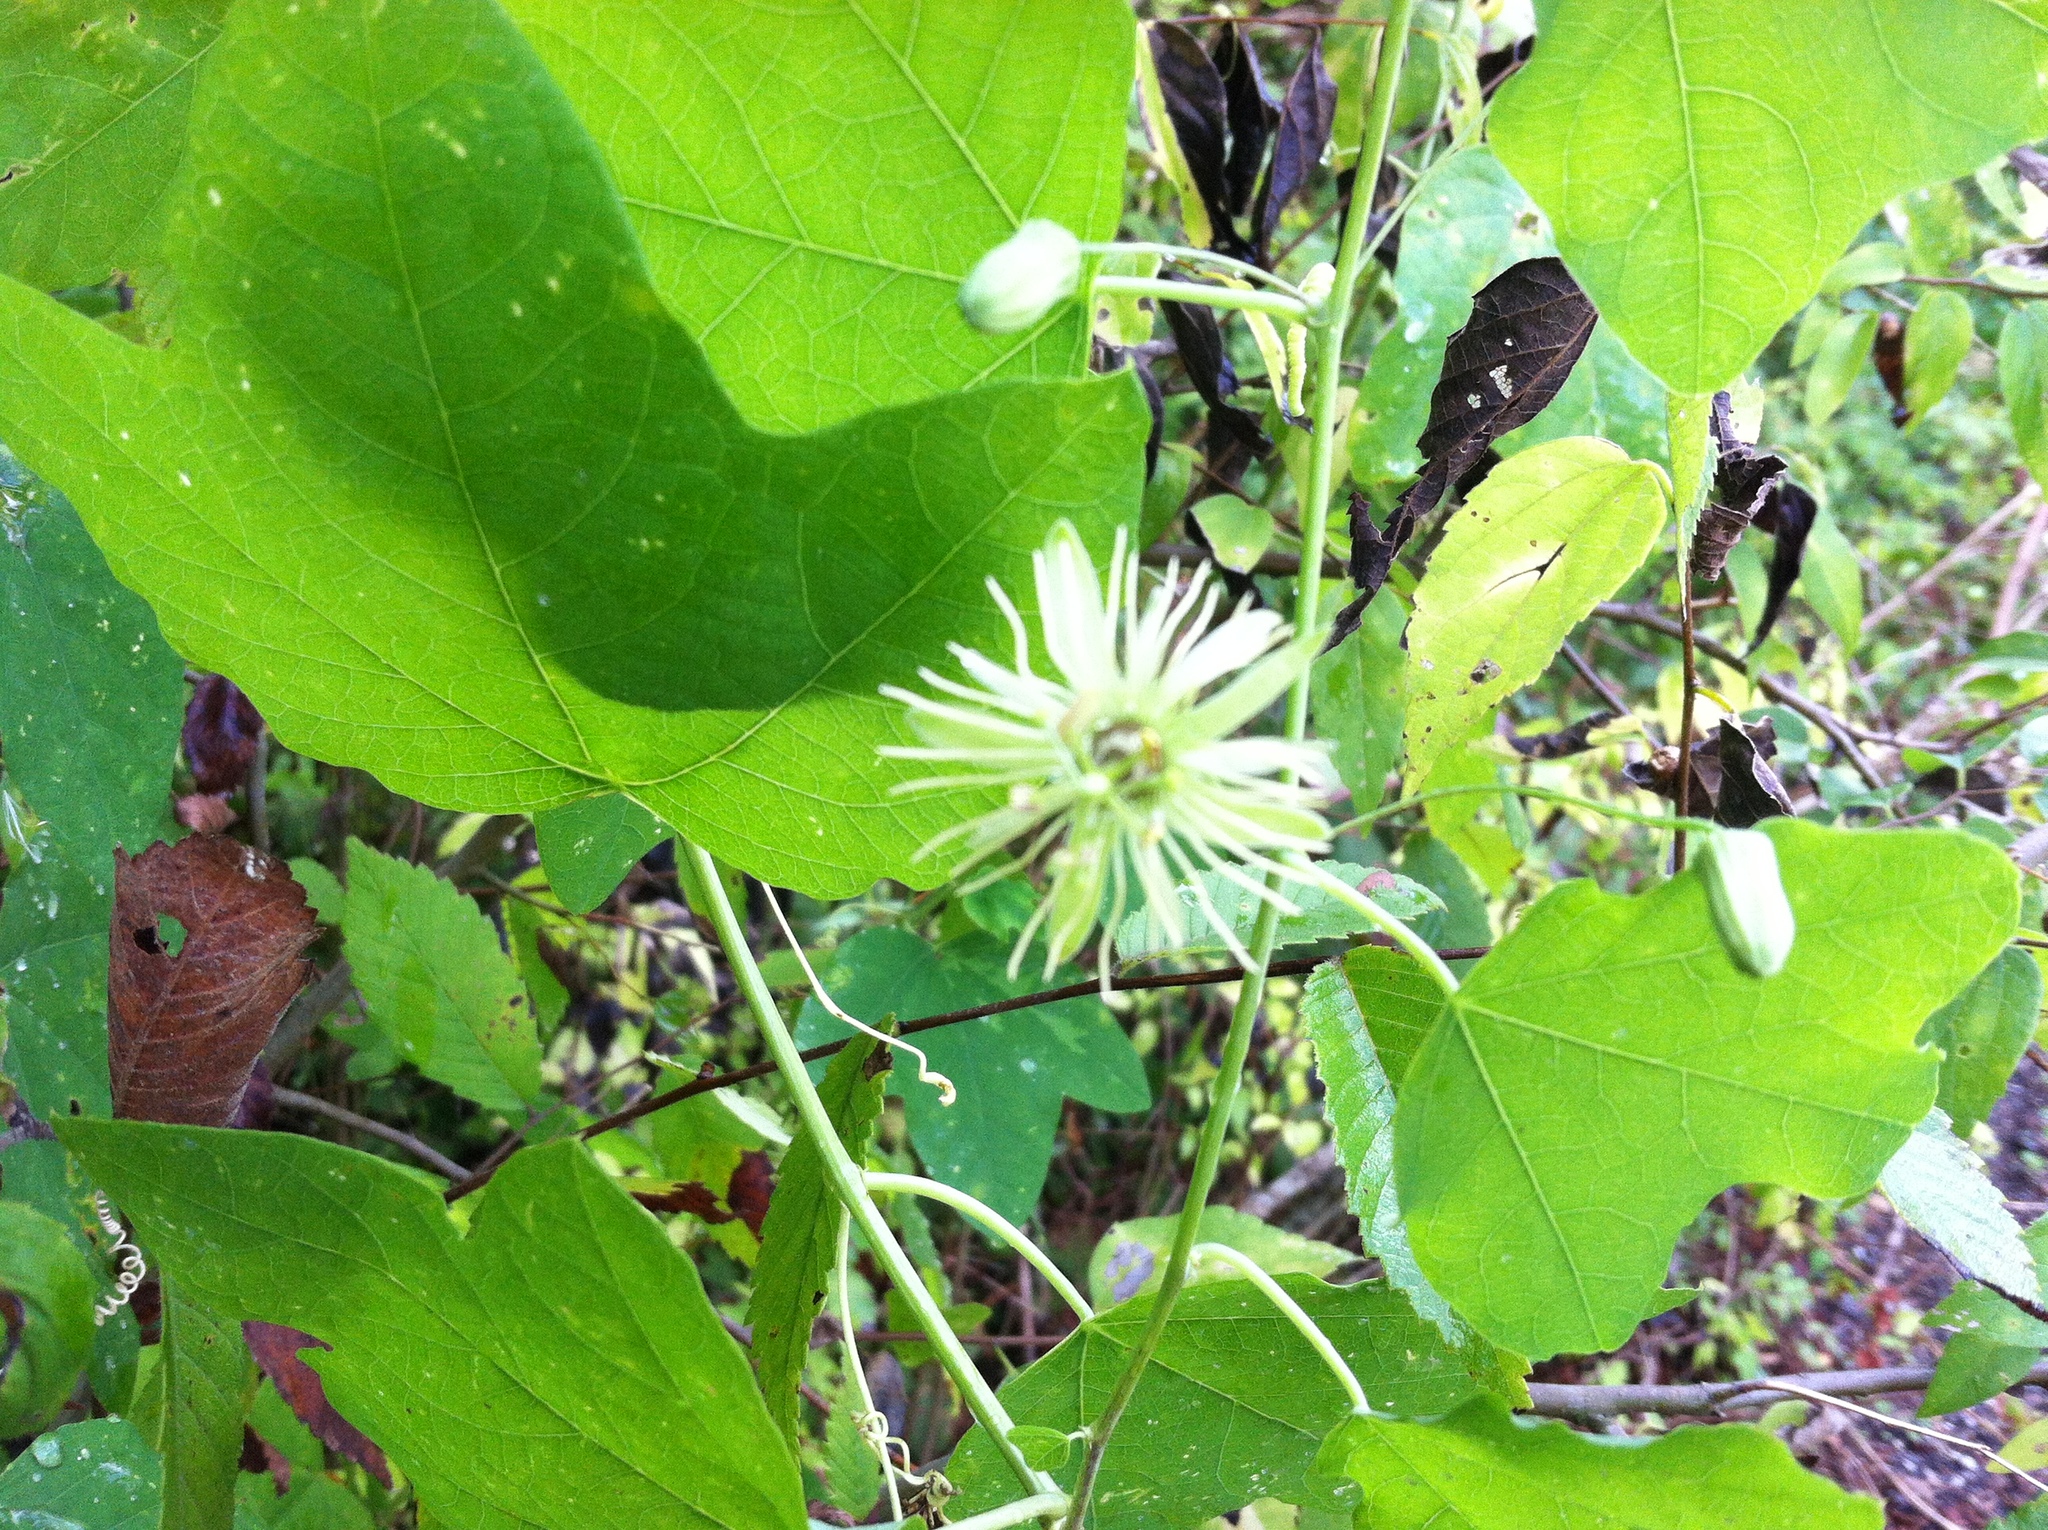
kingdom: Plantae
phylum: Tracheophyta
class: Magnoliopsida
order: Malpighiales
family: Passifloraceae
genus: Passiflora
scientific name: Passiflora lutea
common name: Yellow passionflower
